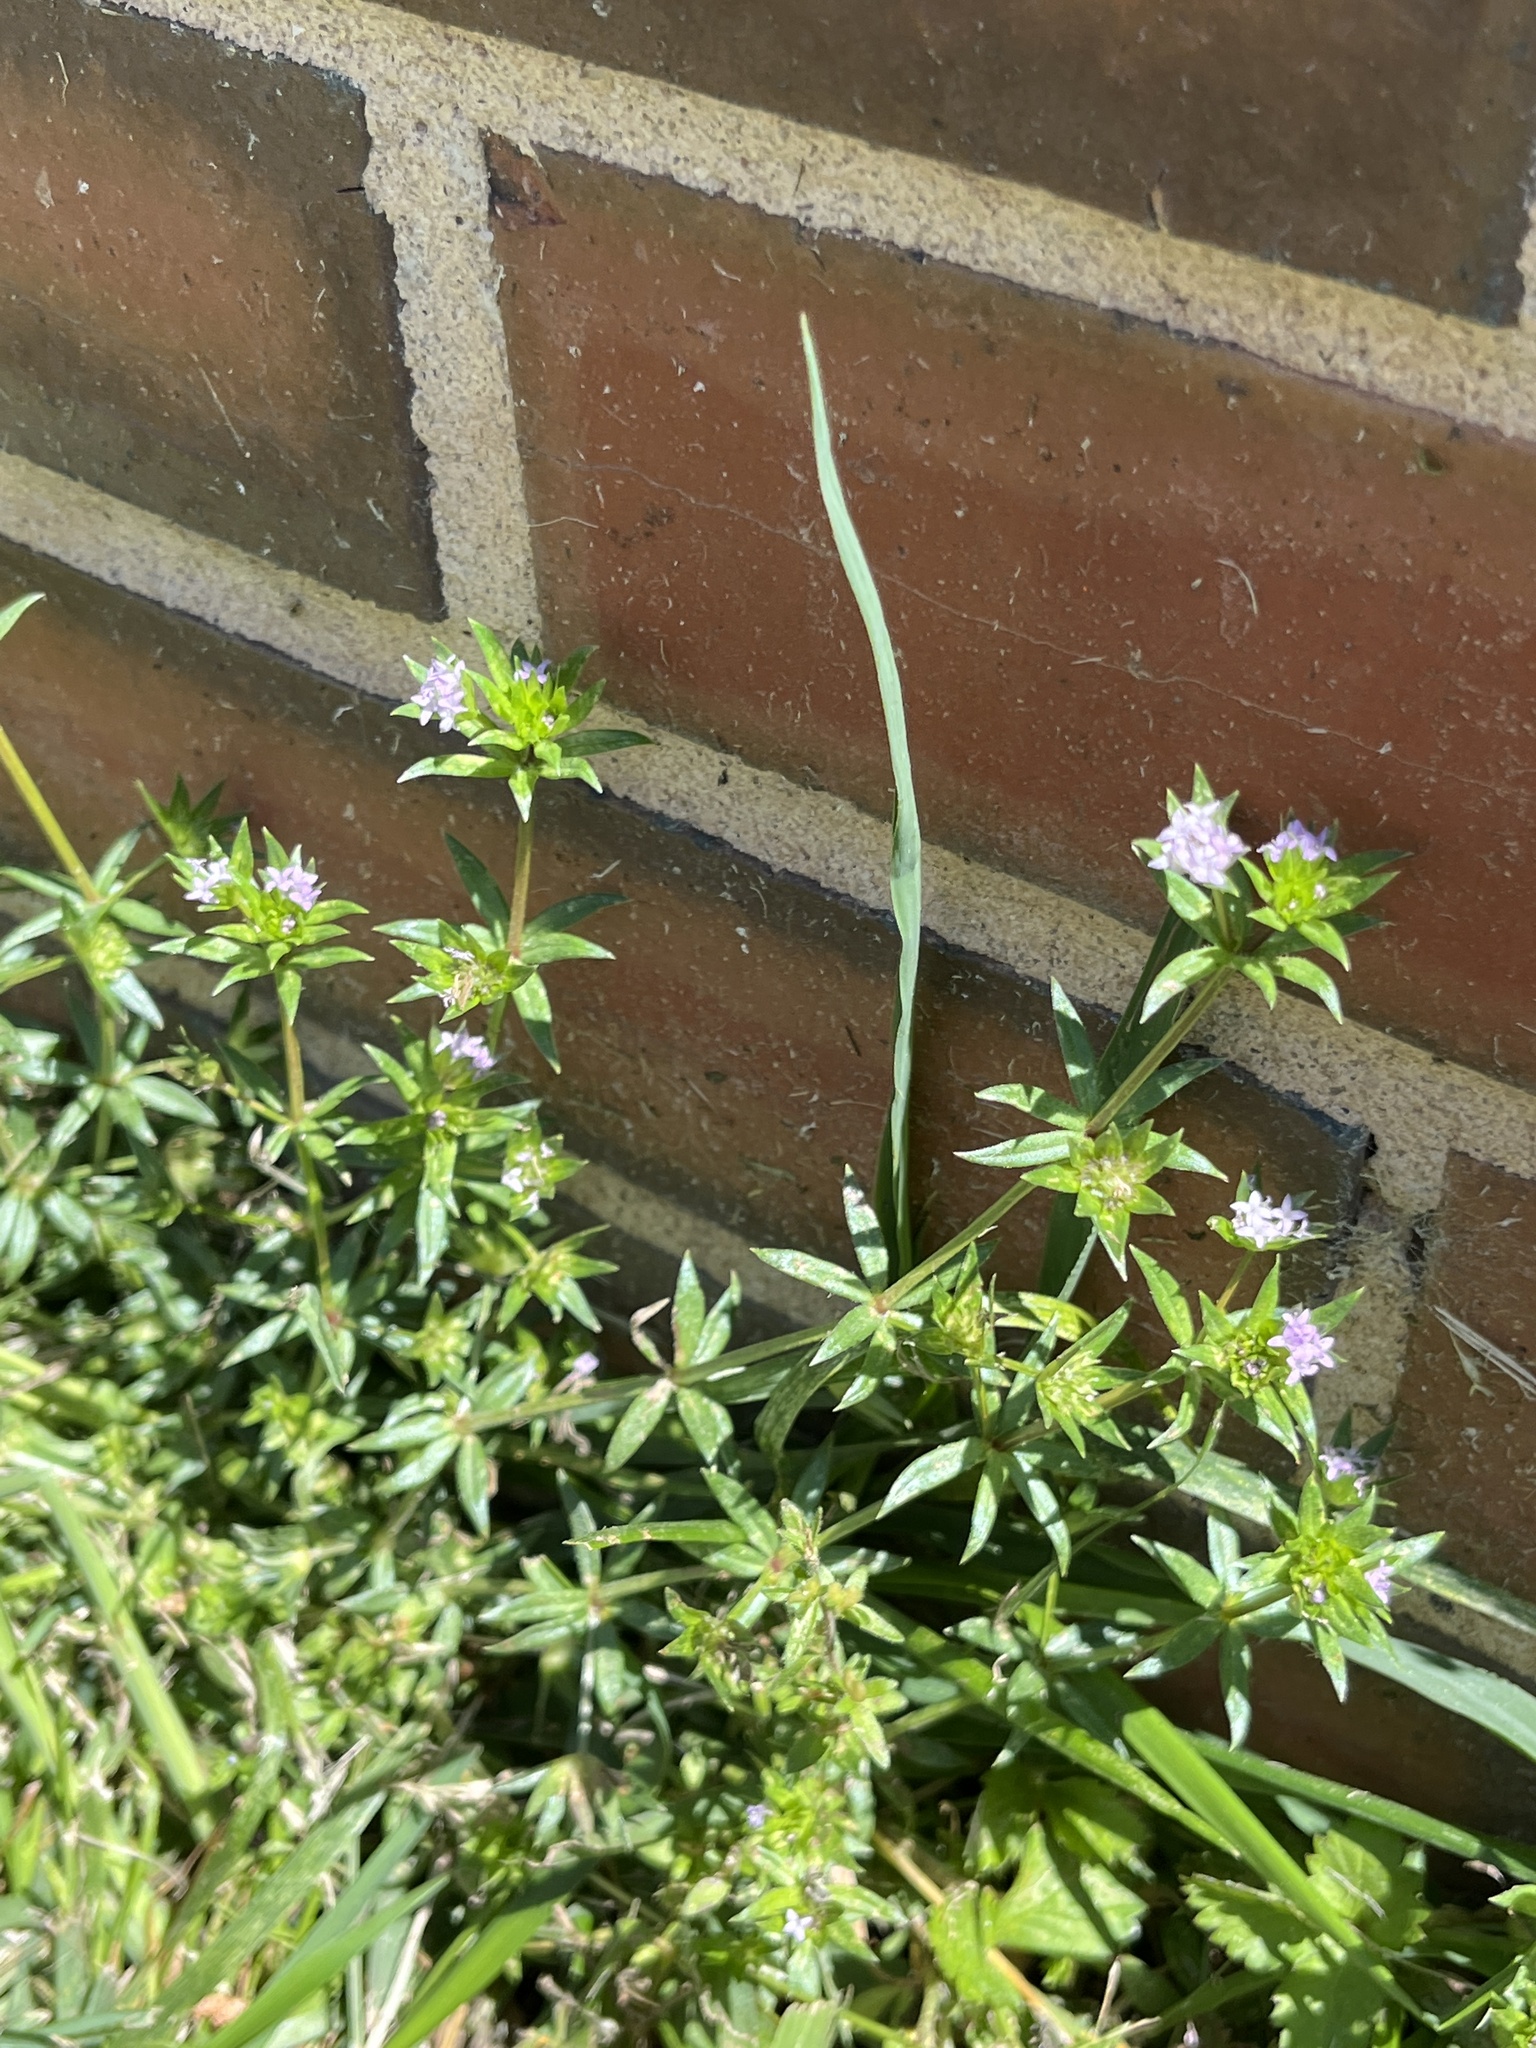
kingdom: Plantae
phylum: Tracheophyta
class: Magnoliopsida
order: Gentianales
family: Rubiaceae
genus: Sherardia
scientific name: Sherardia arvensis
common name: Field madder
